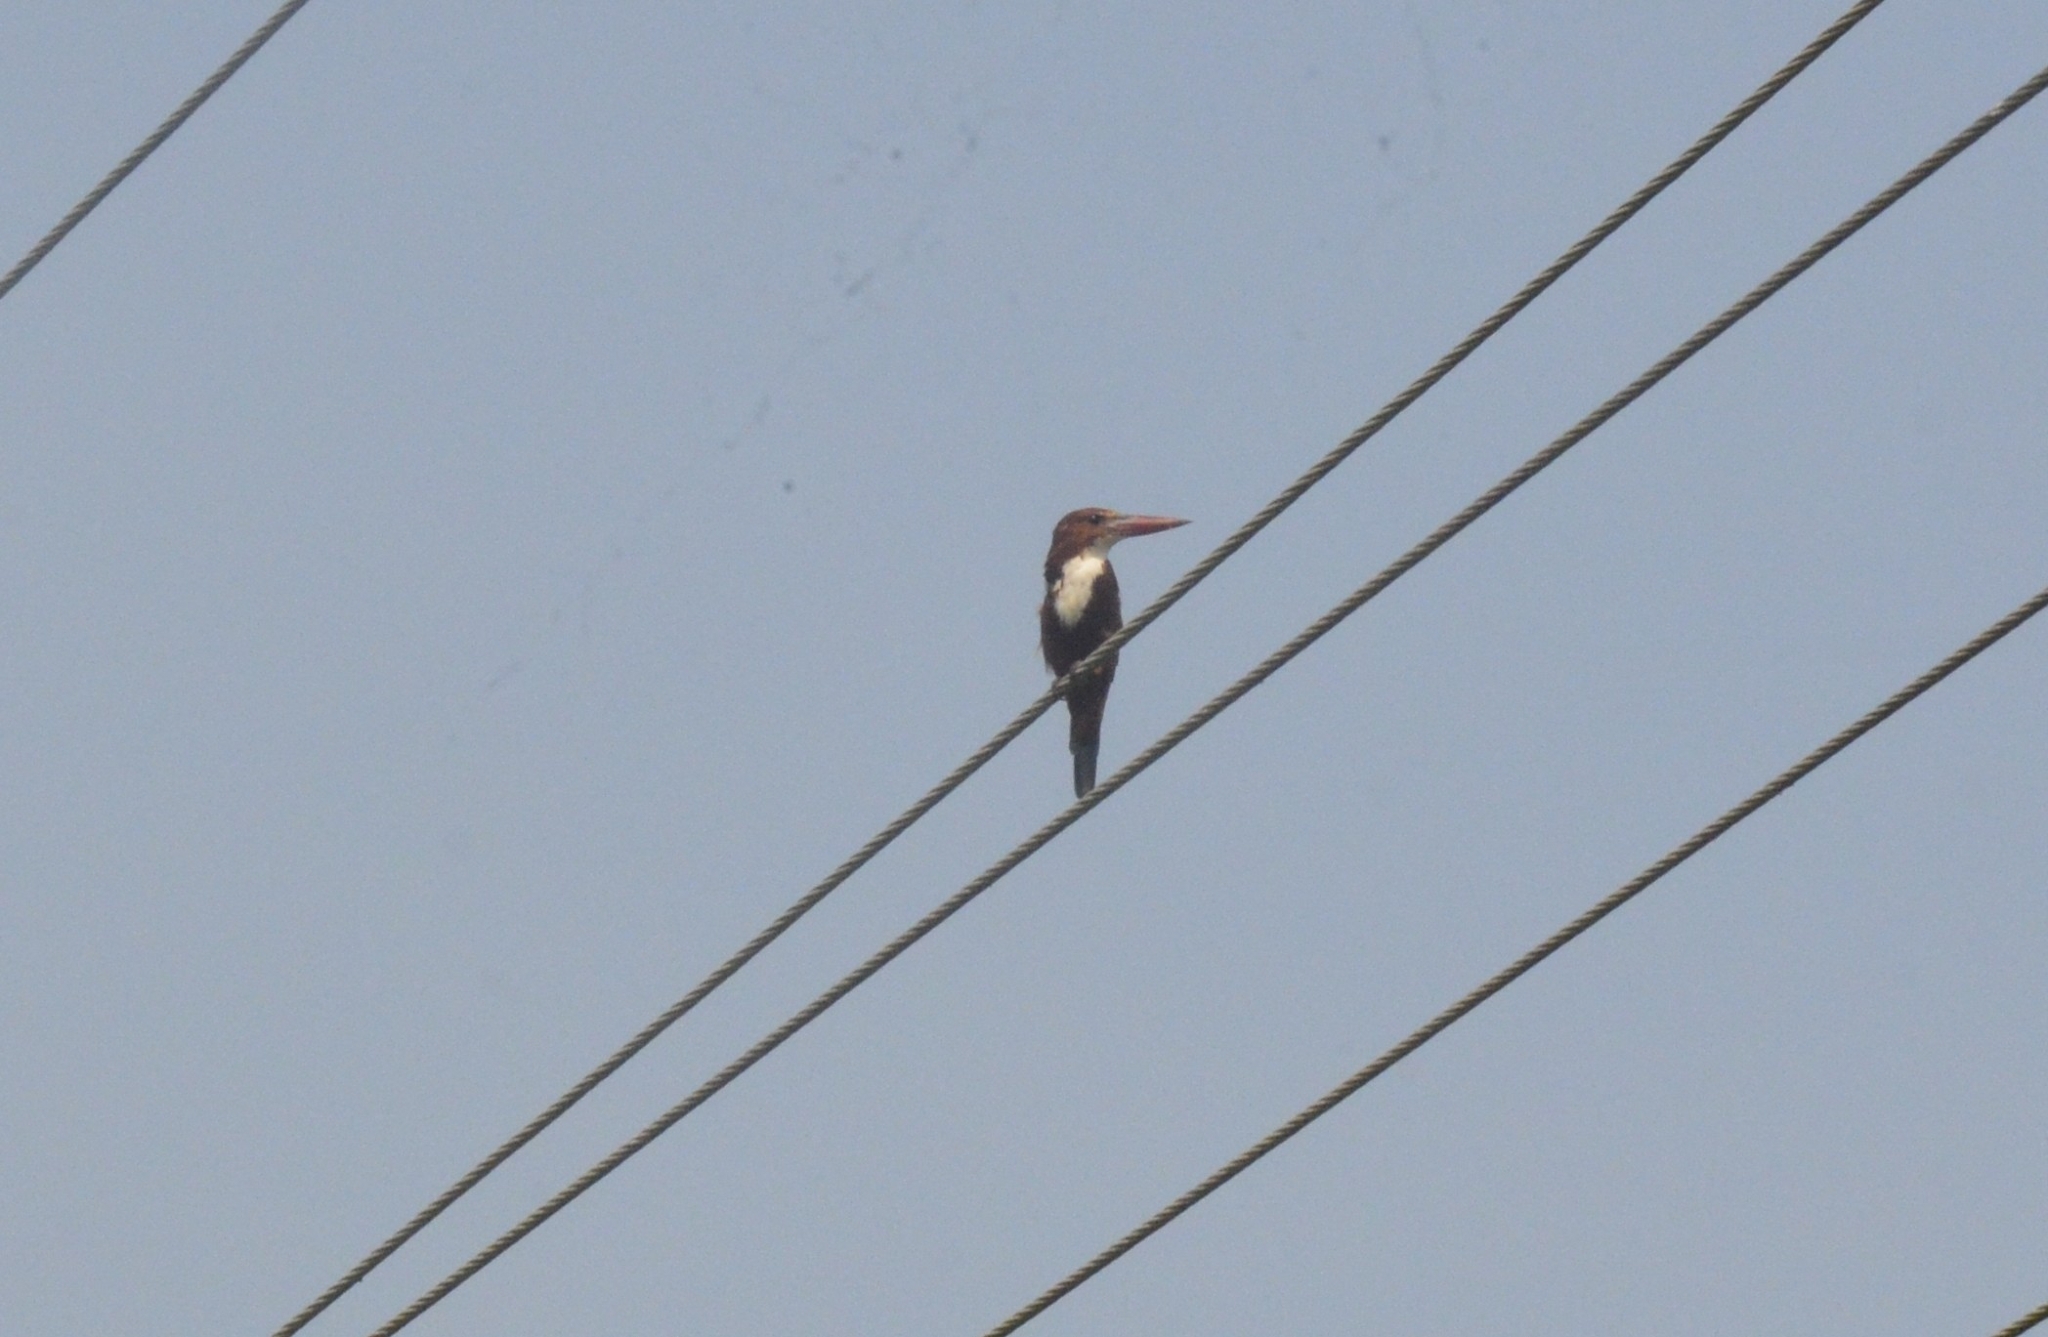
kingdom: Animalia
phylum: Chordata
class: Aves
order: Coraciiformes
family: Alcedinidae
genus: Halcyon
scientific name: Halcyon smyrnensis
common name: White-throated kingfisher
